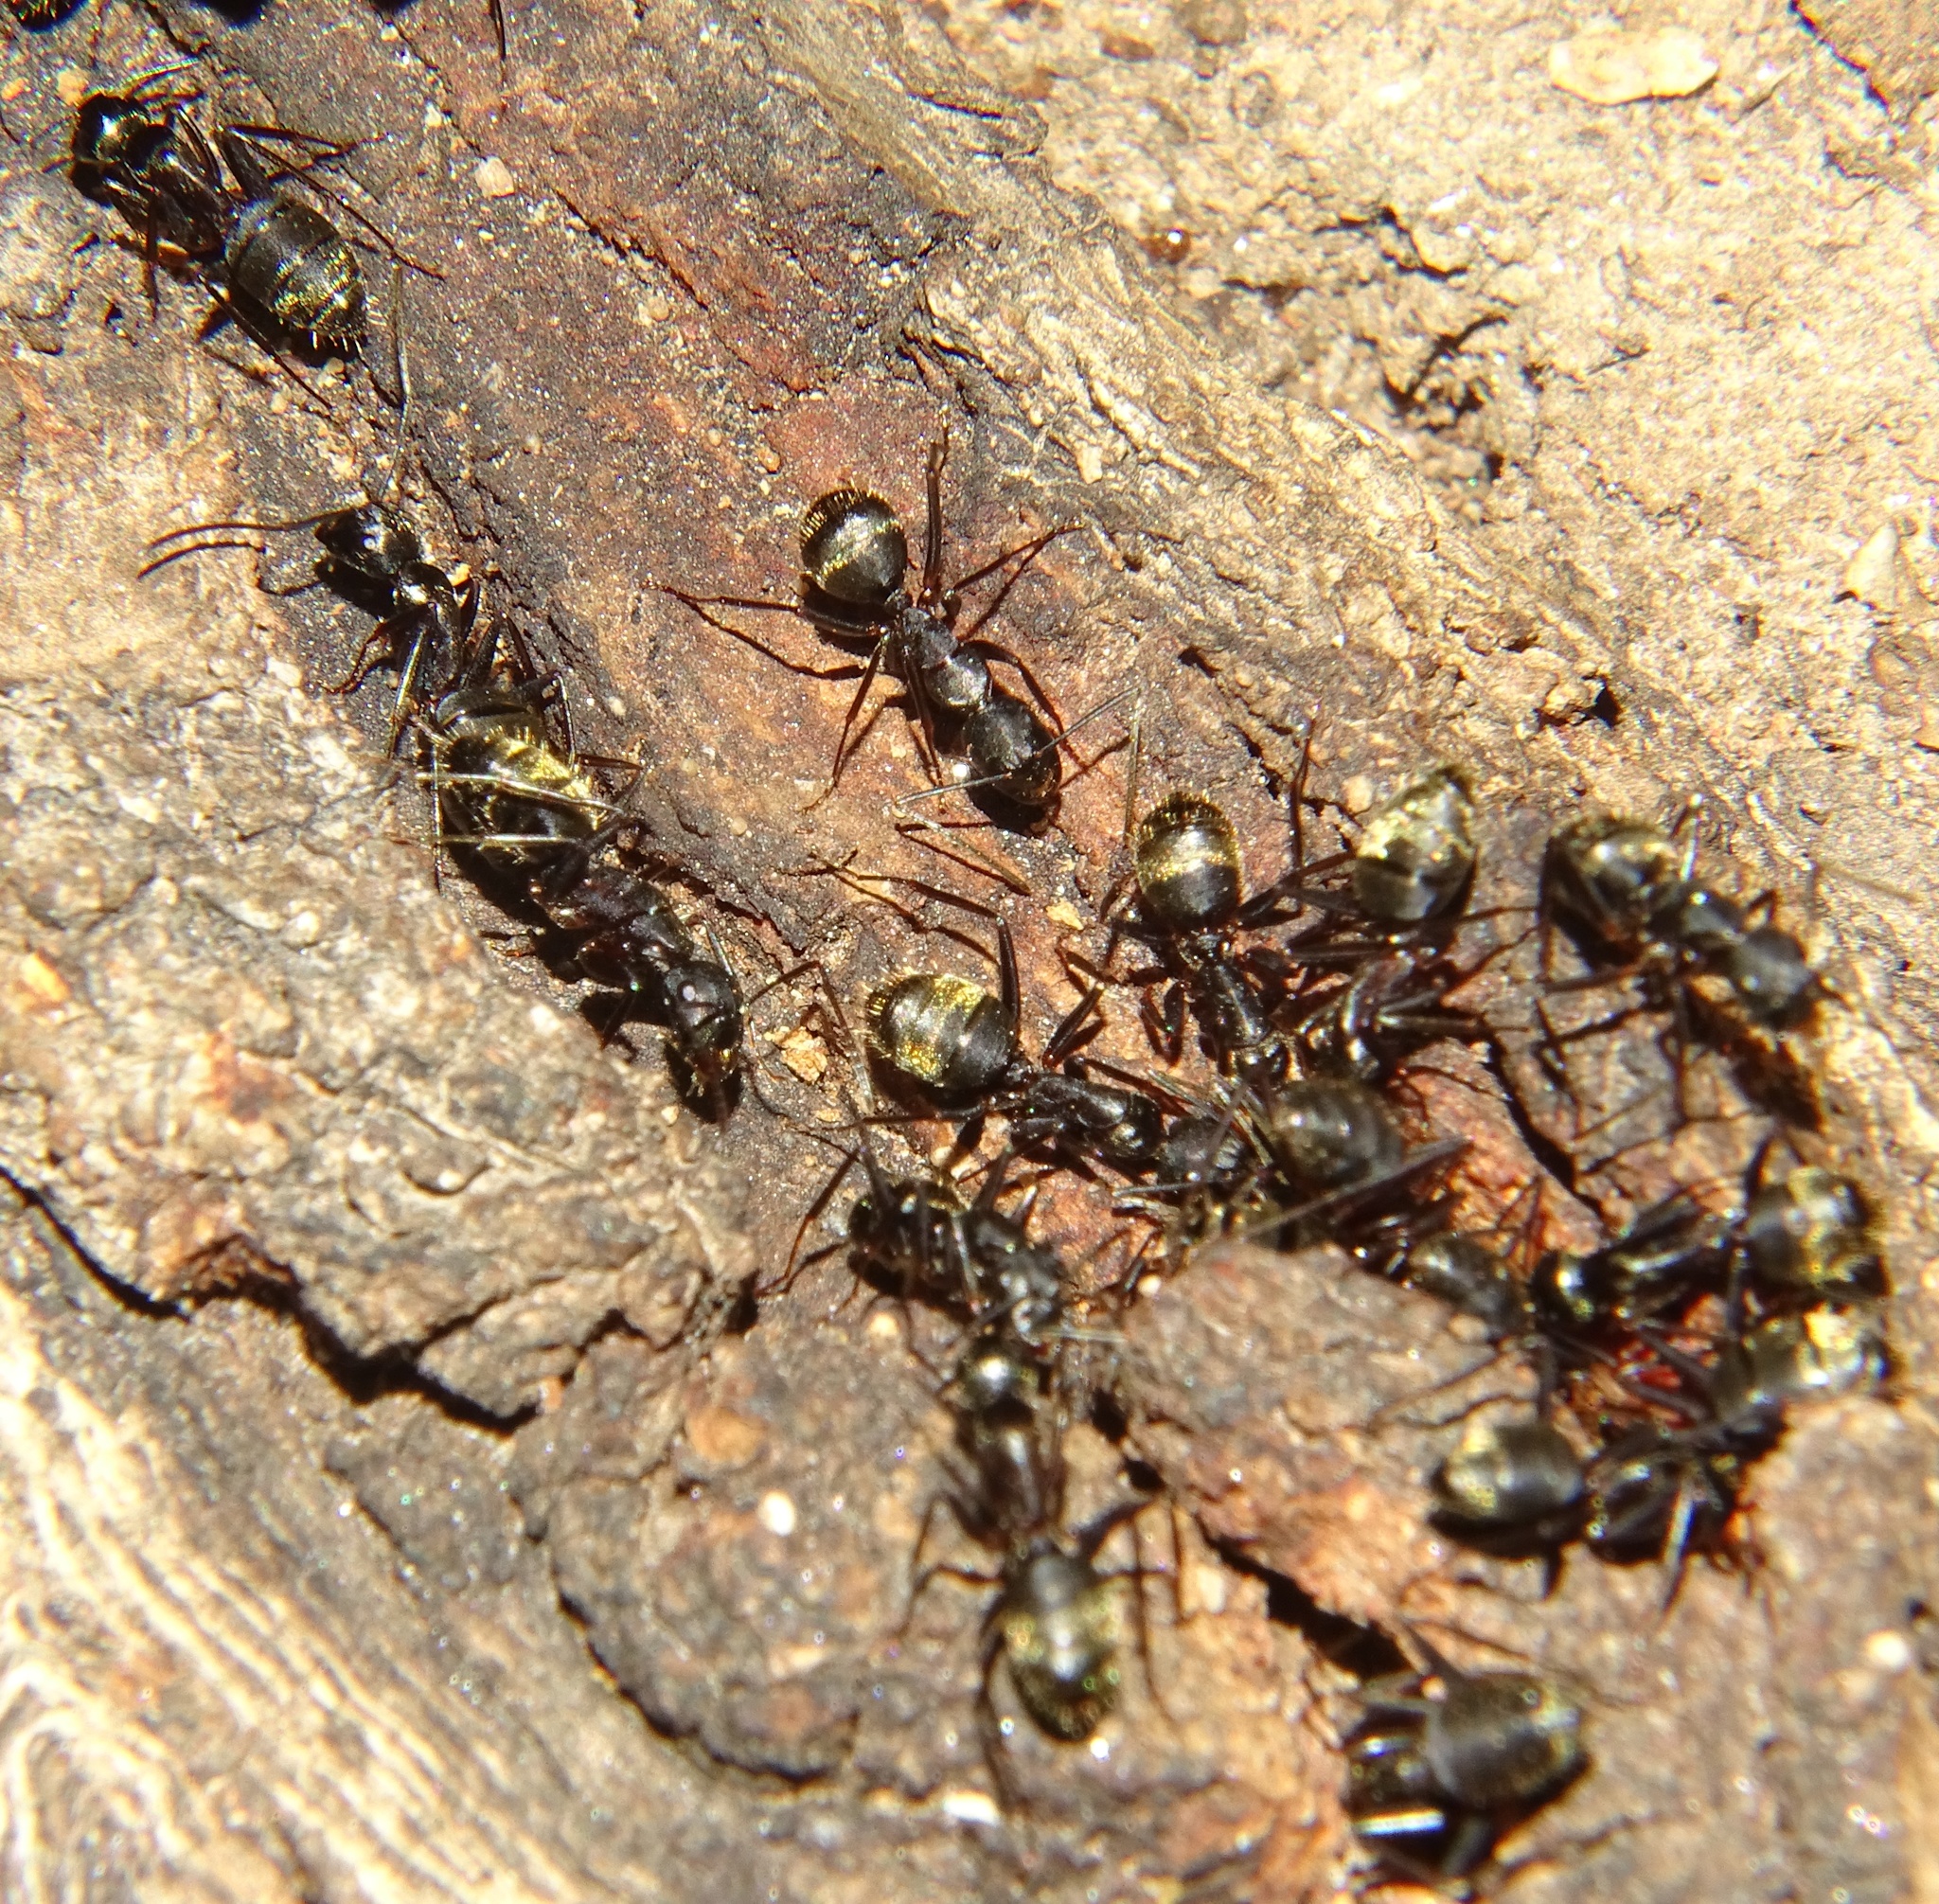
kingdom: Animalia
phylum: Arthropoda
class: Insecta
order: Hymenoptera
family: Formicidae
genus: Camponotus
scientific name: Camponotus pennsylvanicus
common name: Black carpenter ant
